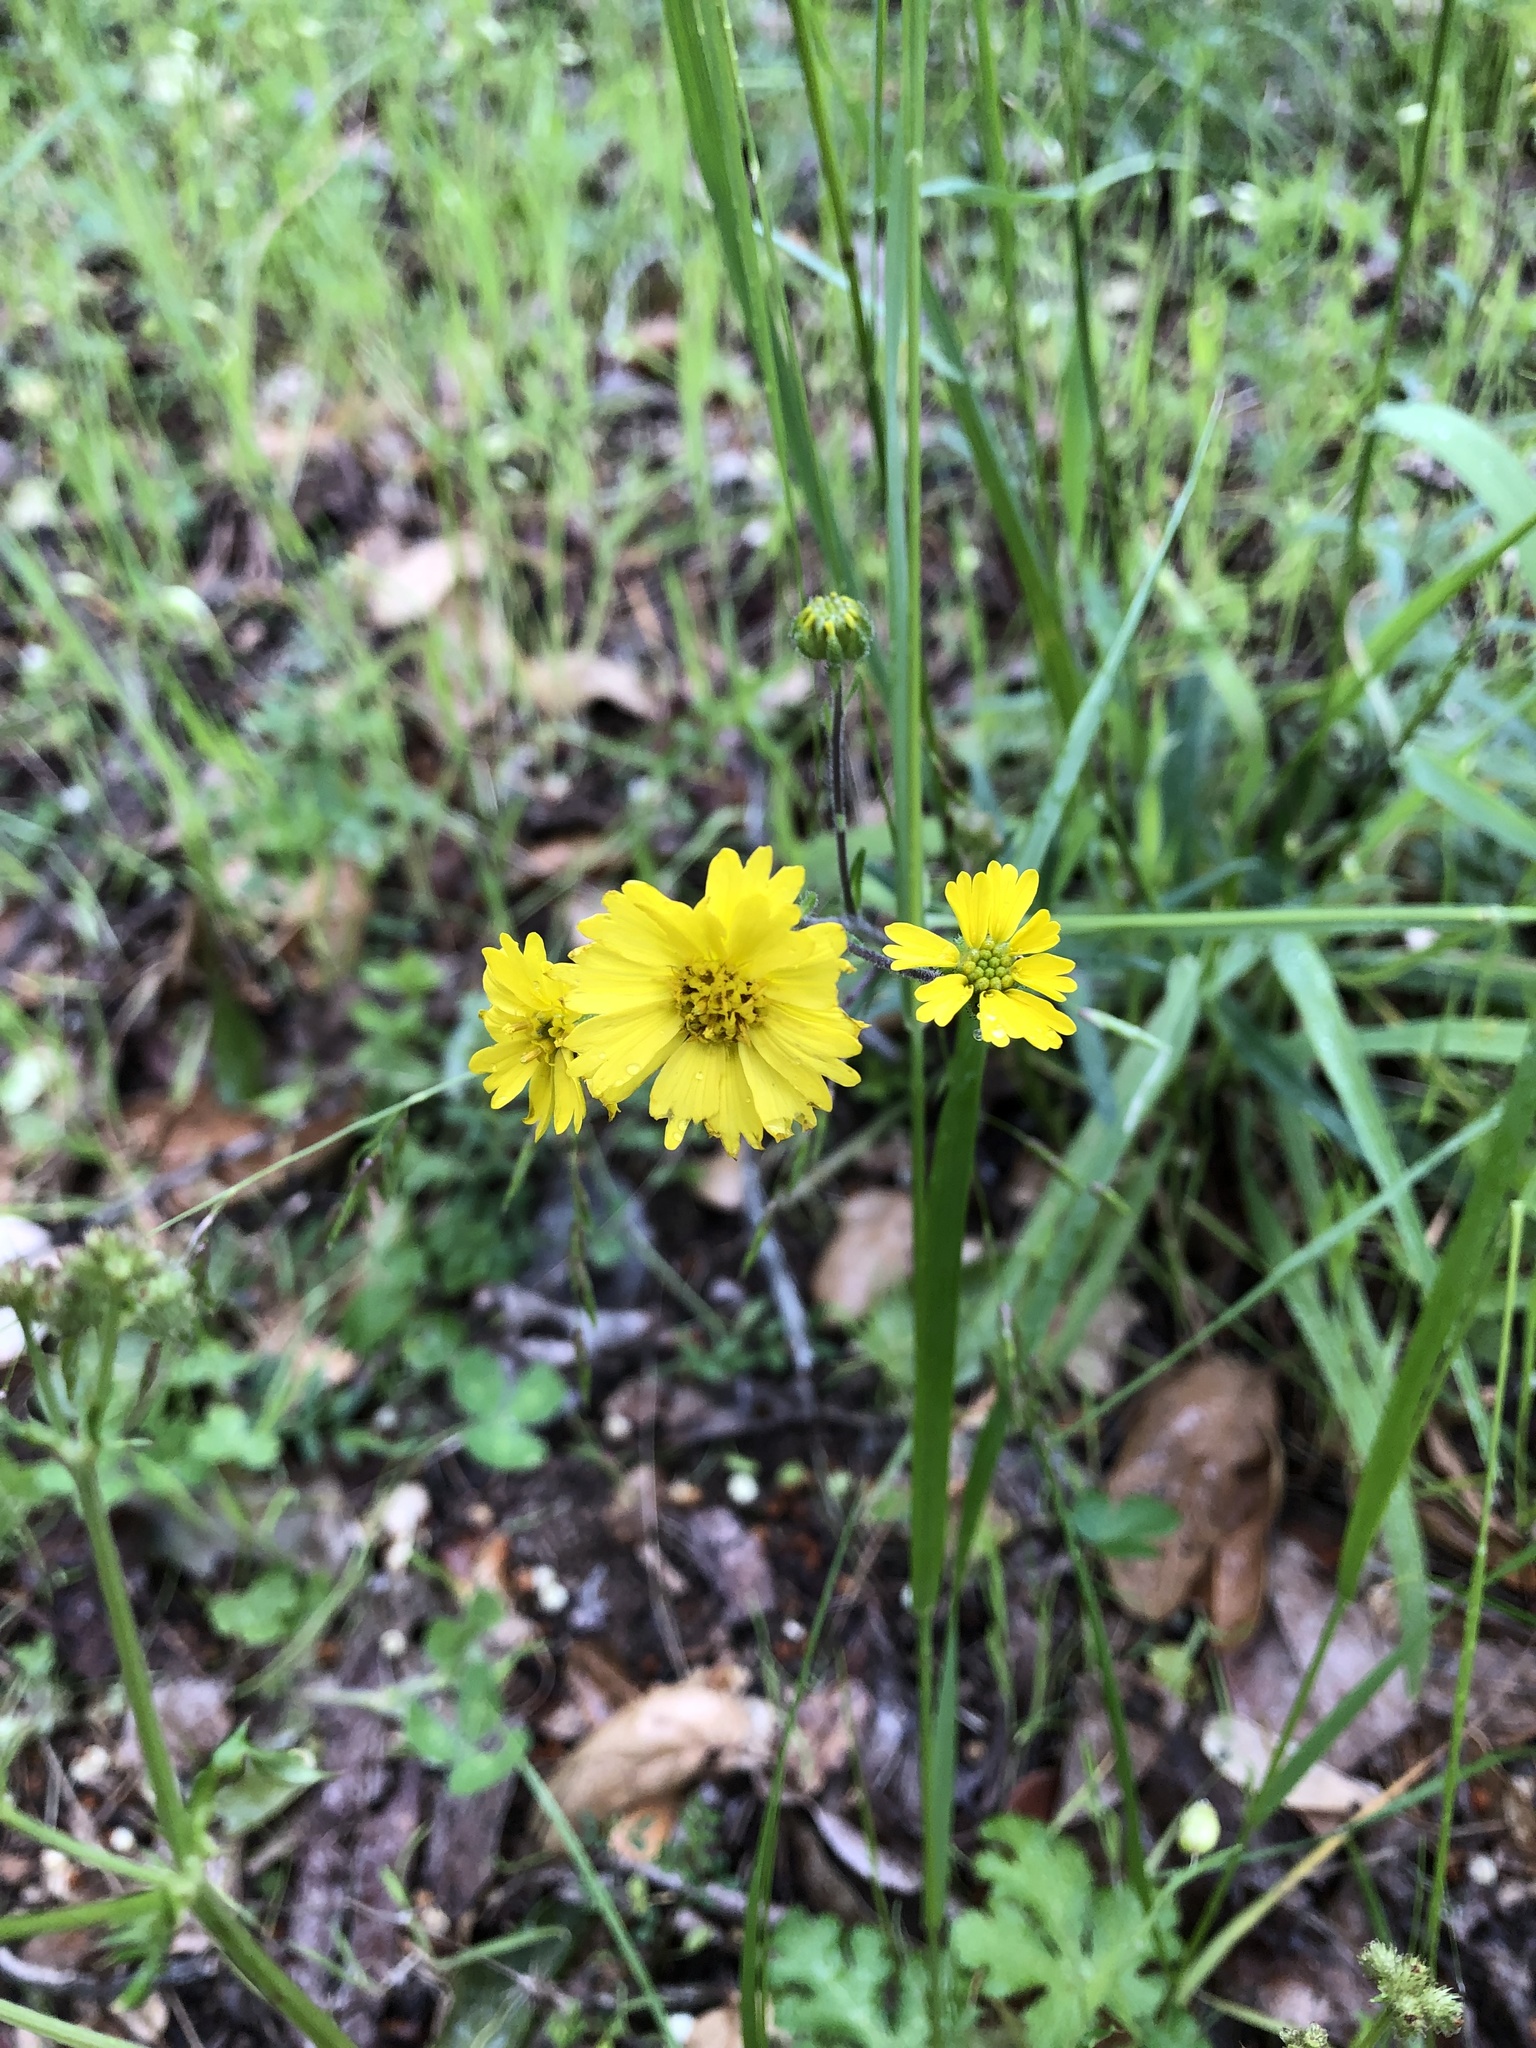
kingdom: Plantae
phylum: Tracheophyta
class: Magnoliopsida
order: Asterales
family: Asteraceae
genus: Anisocarpus
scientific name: Anisocarpus madioides
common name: Woodland madia
